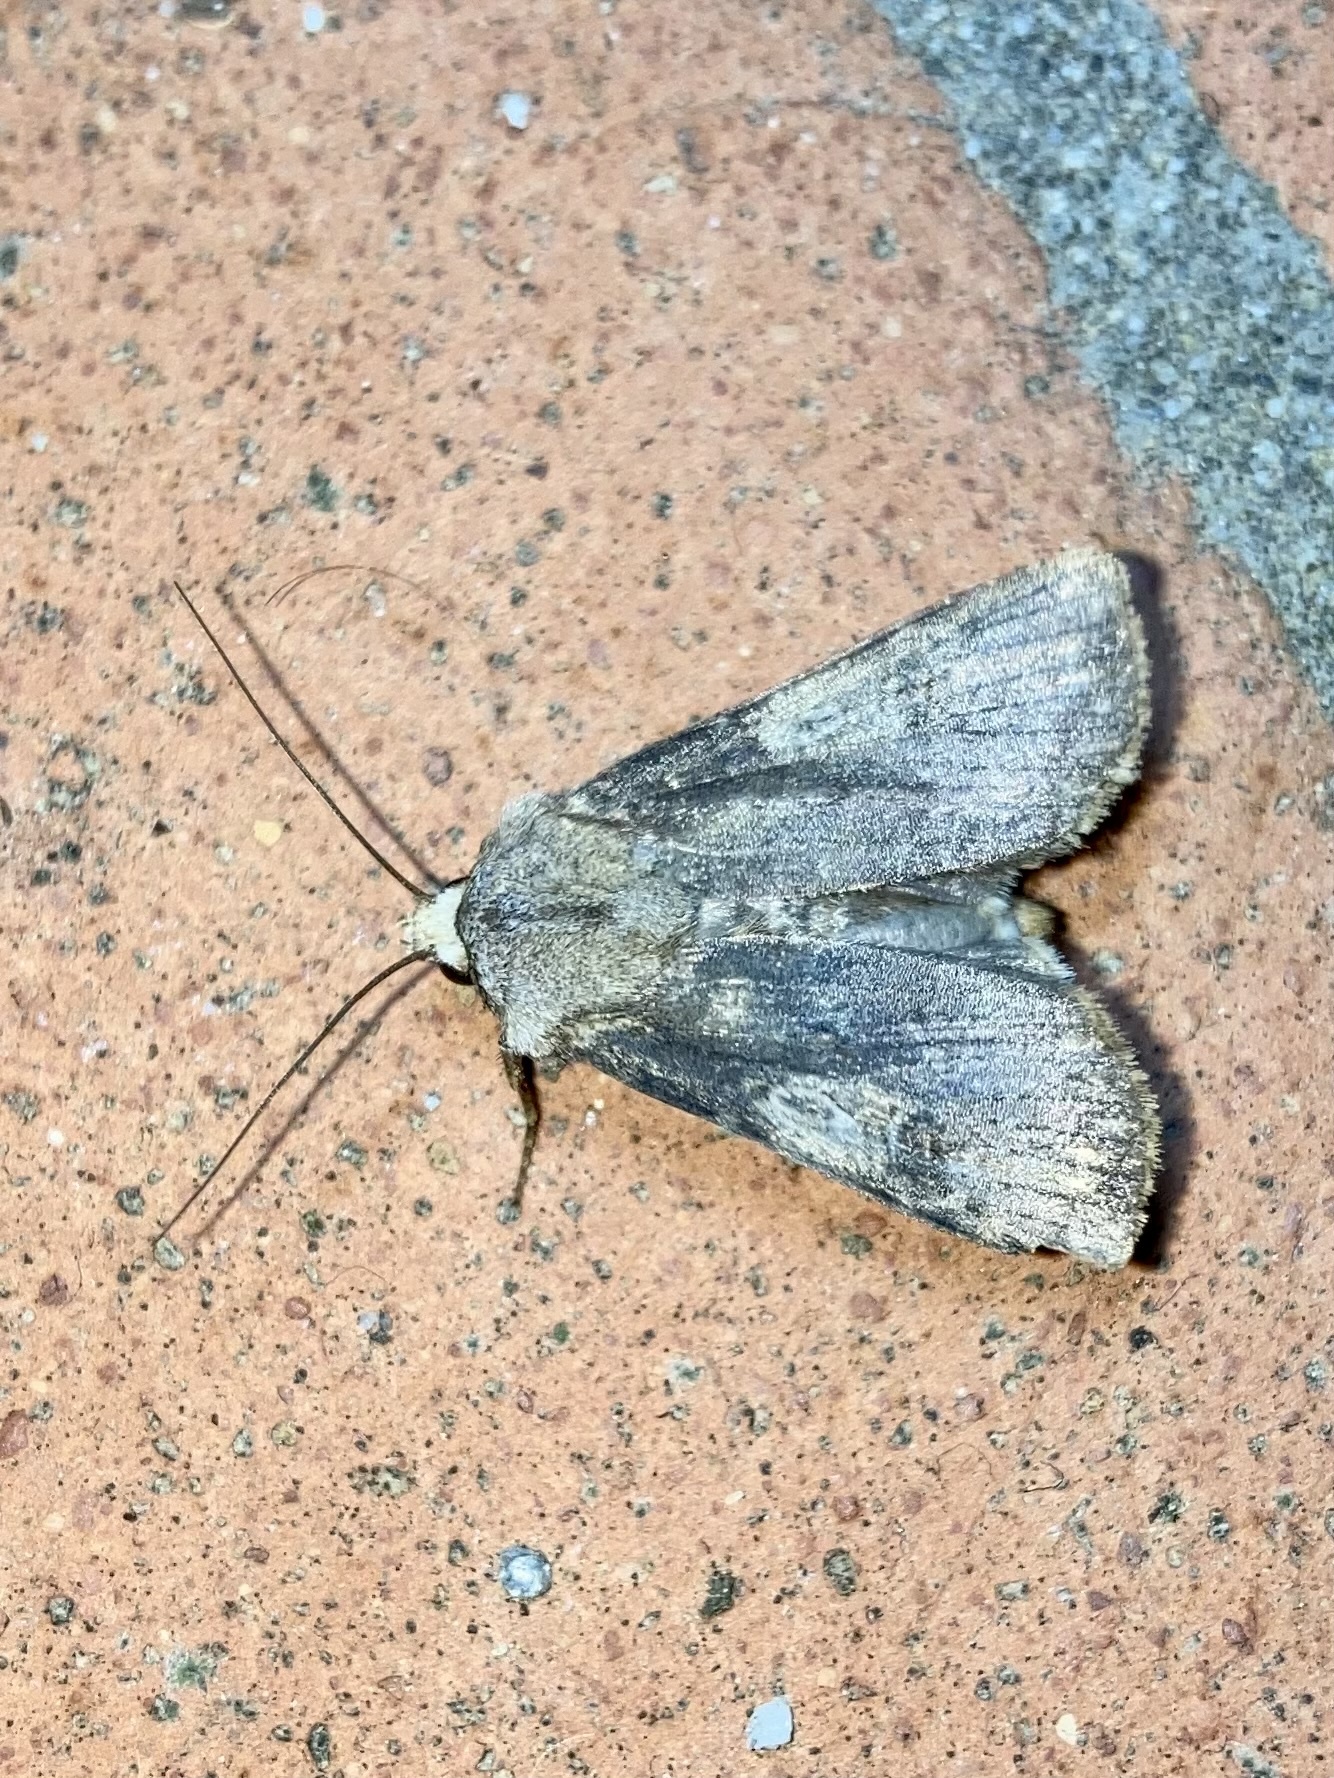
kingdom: Animalia
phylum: Arthropoda
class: Insecta
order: Lepidoptera
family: Noctuidae
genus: Agrotis
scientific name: Agrotis puta
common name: Shuttle-shaped dart
